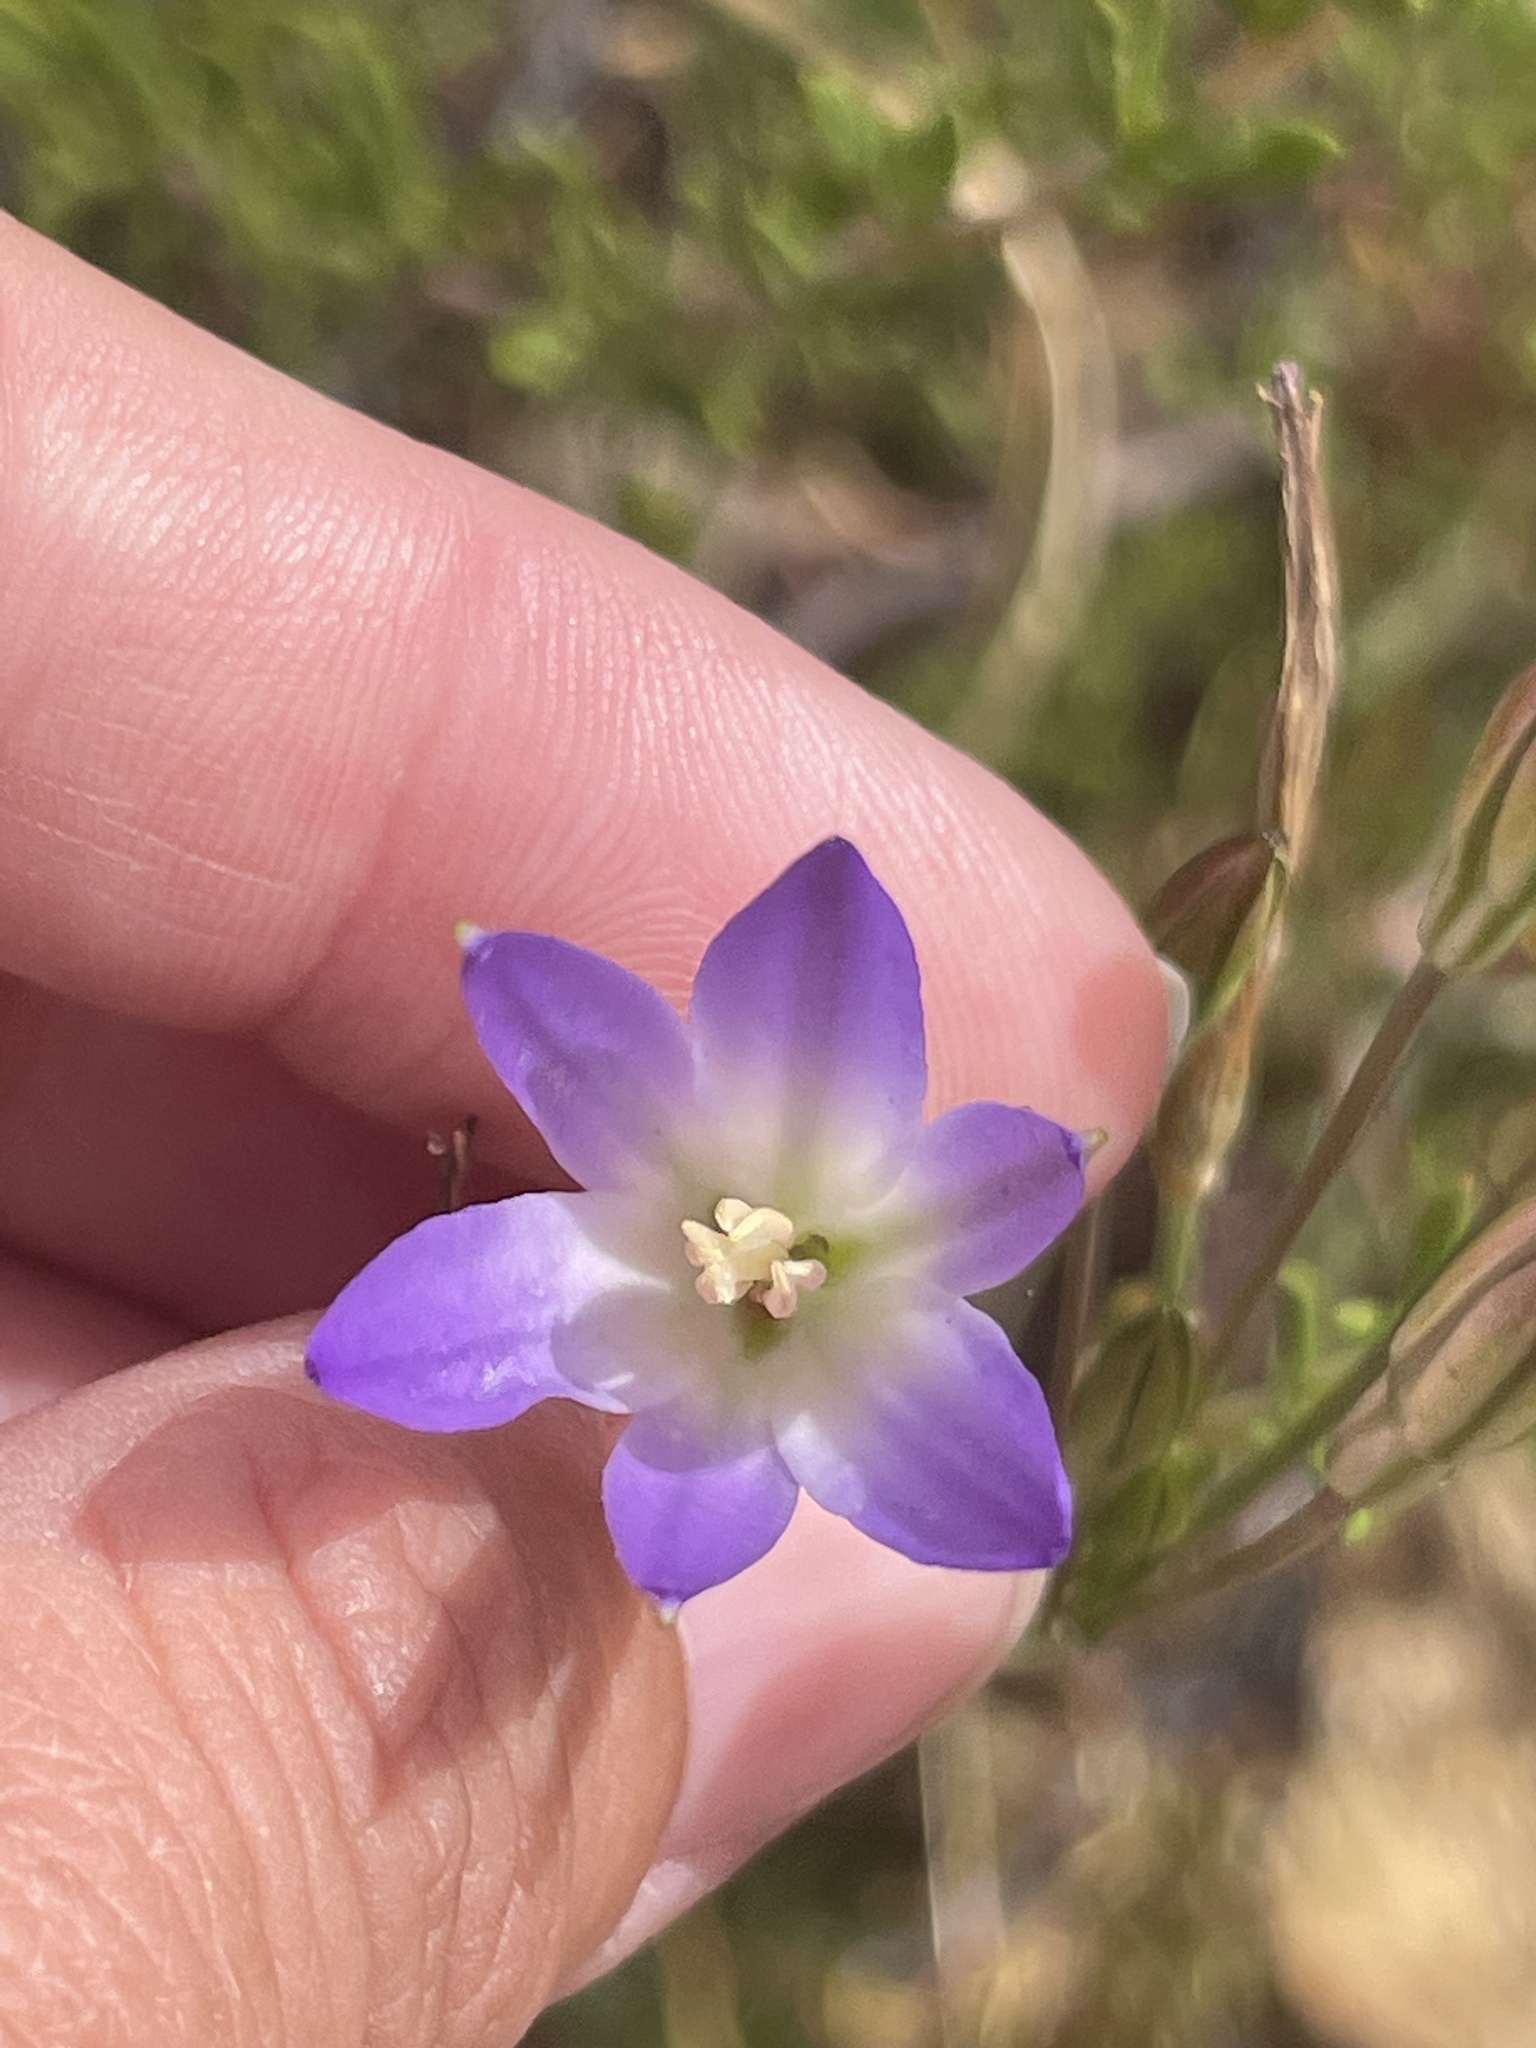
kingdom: Plantae
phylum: Tracheophyta
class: Liliopsida
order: Asparagales
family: Asparagaceae
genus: Brodiaea
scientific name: Brodiaea orcuttii
